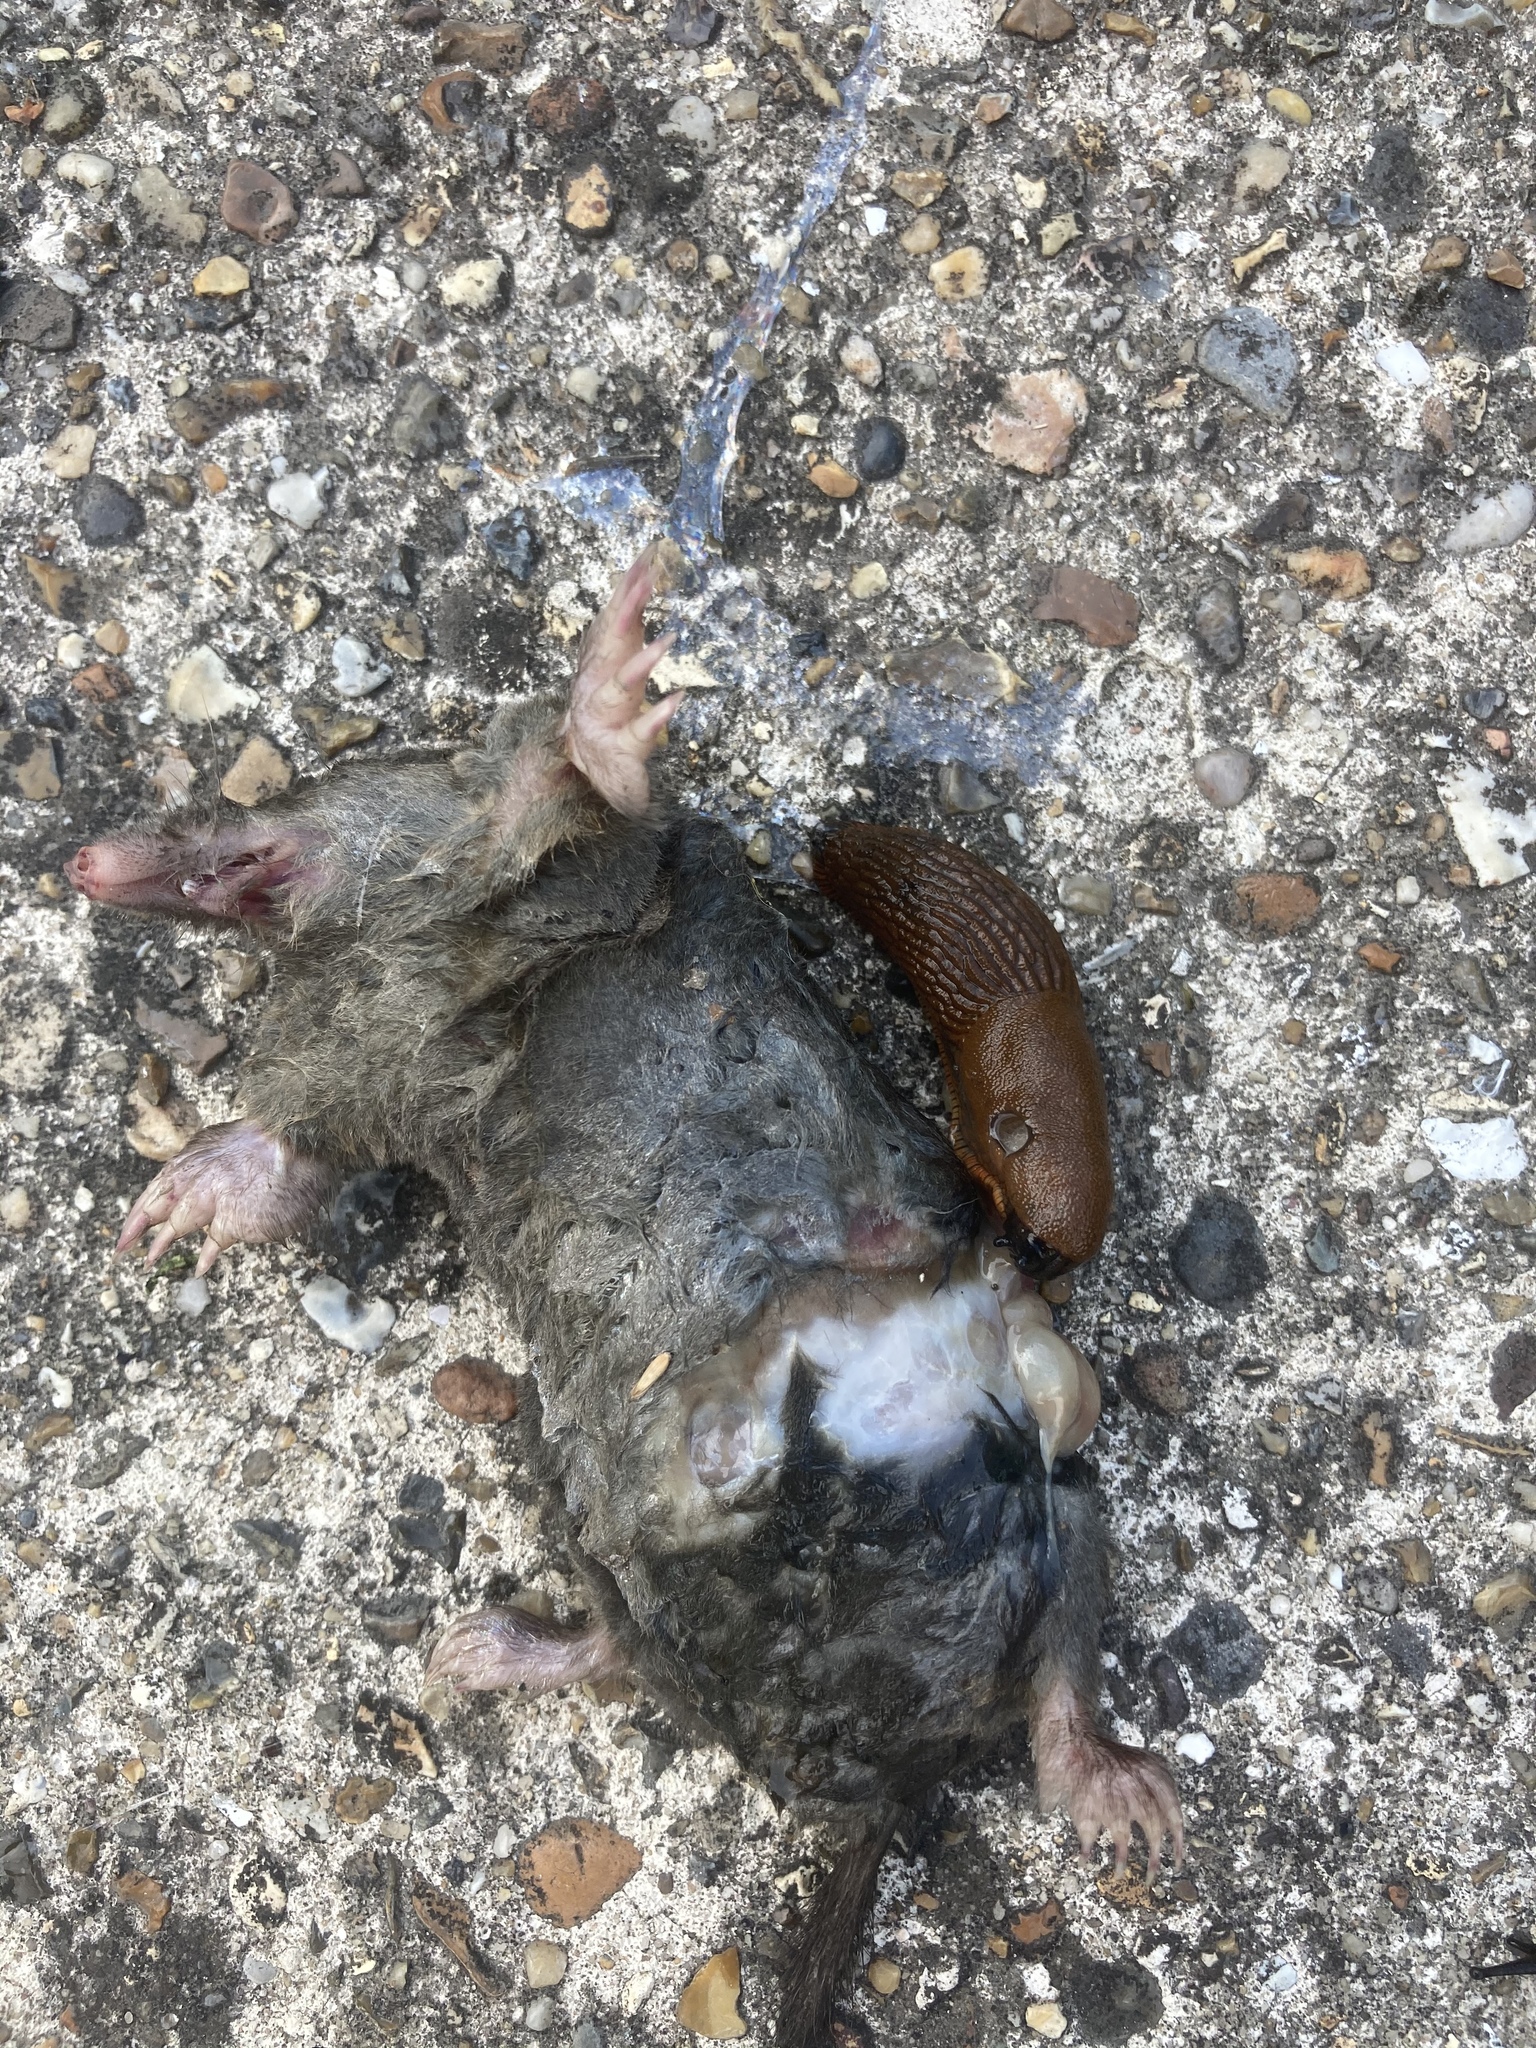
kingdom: Animalia
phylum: Chordata
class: Mammalia
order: Soricomorpha
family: Talpidae
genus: Talpa
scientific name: Talpa europaea
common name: European mole
